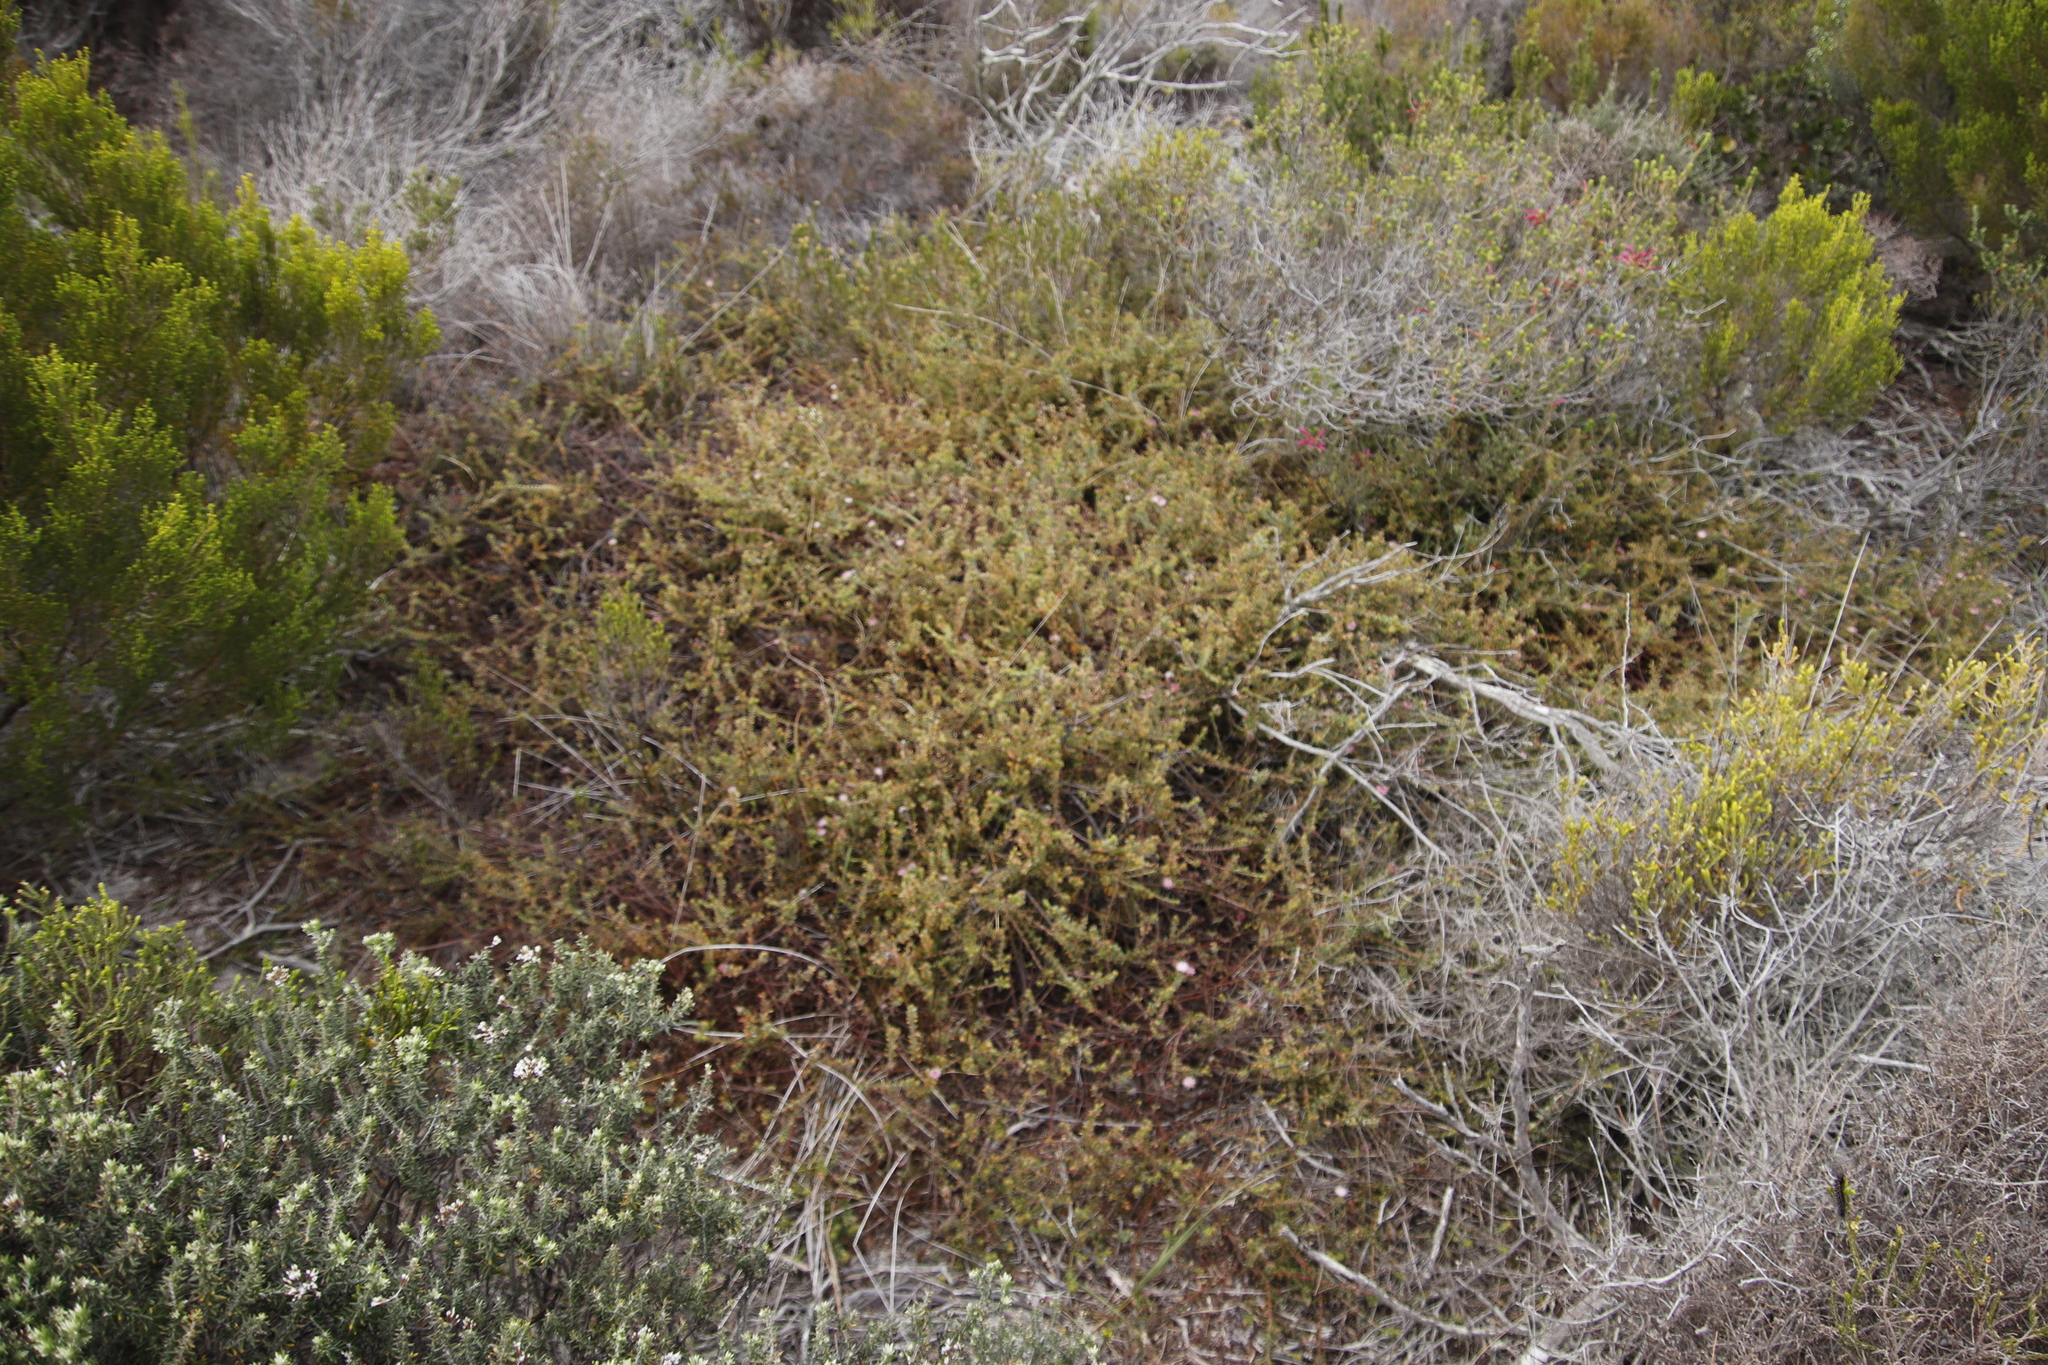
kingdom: Plantae
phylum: Tracheophyta
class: Magnoliopsida
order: Proteales
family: Proteaceae
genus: Diastella
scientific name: Diastella divaricata
